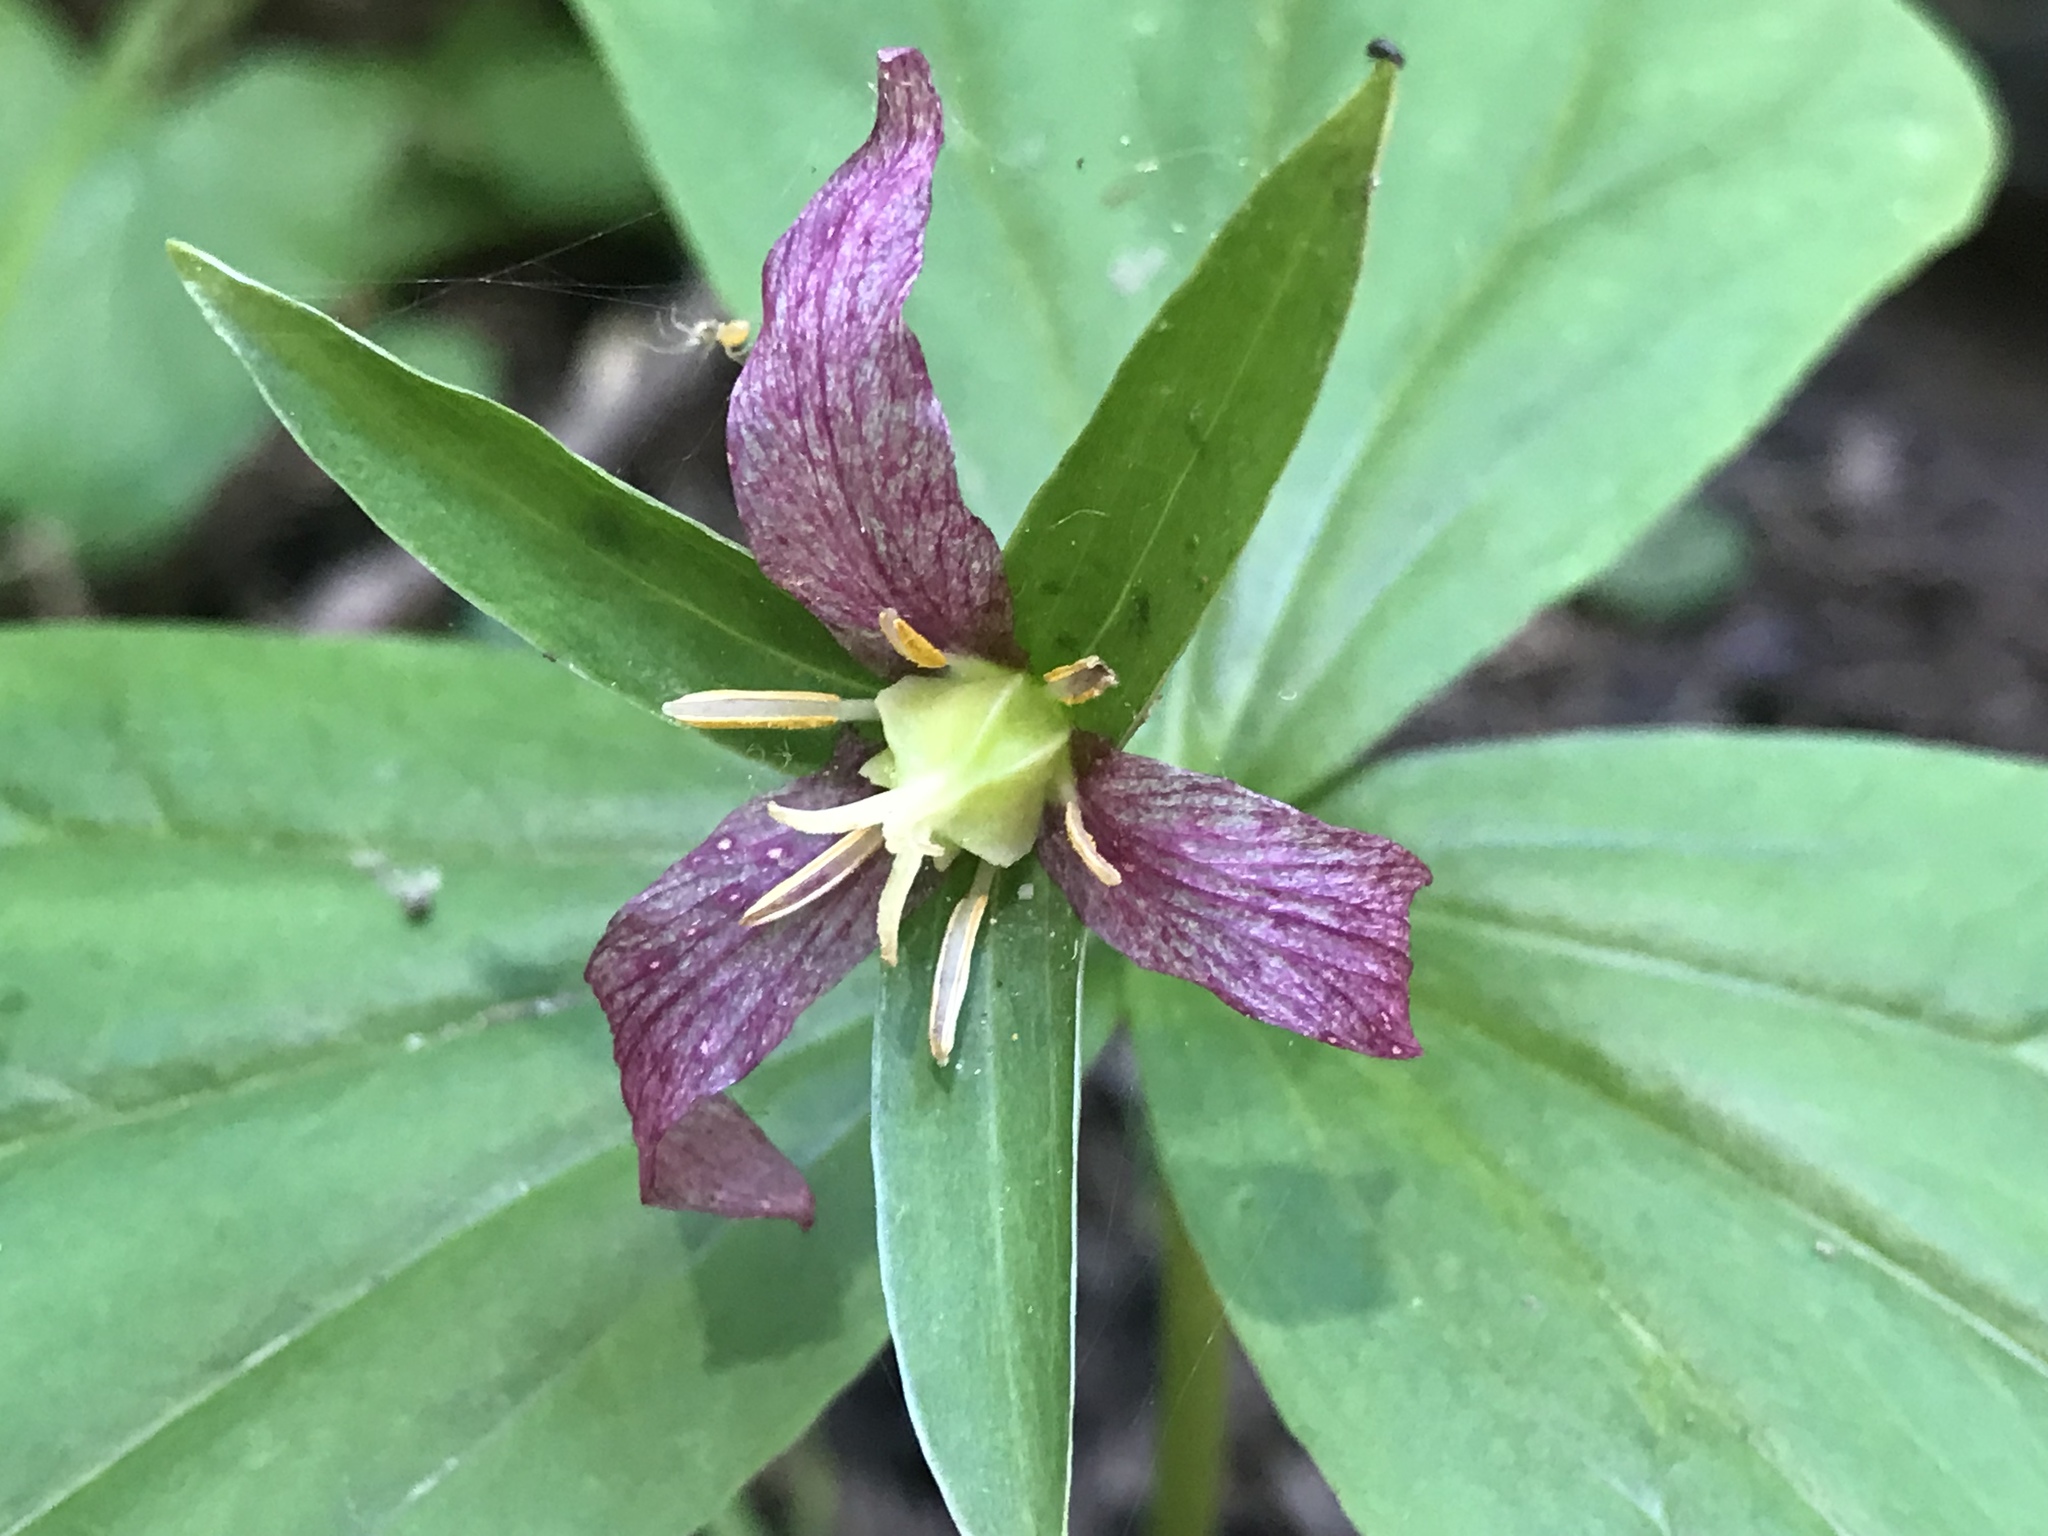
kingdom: Plantae
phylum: Tracheophyta
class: Liliopsida
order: Liliales
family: Melanthiaceae
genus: Trillium
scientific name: Trillium ovatum
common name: Pacific trillium
